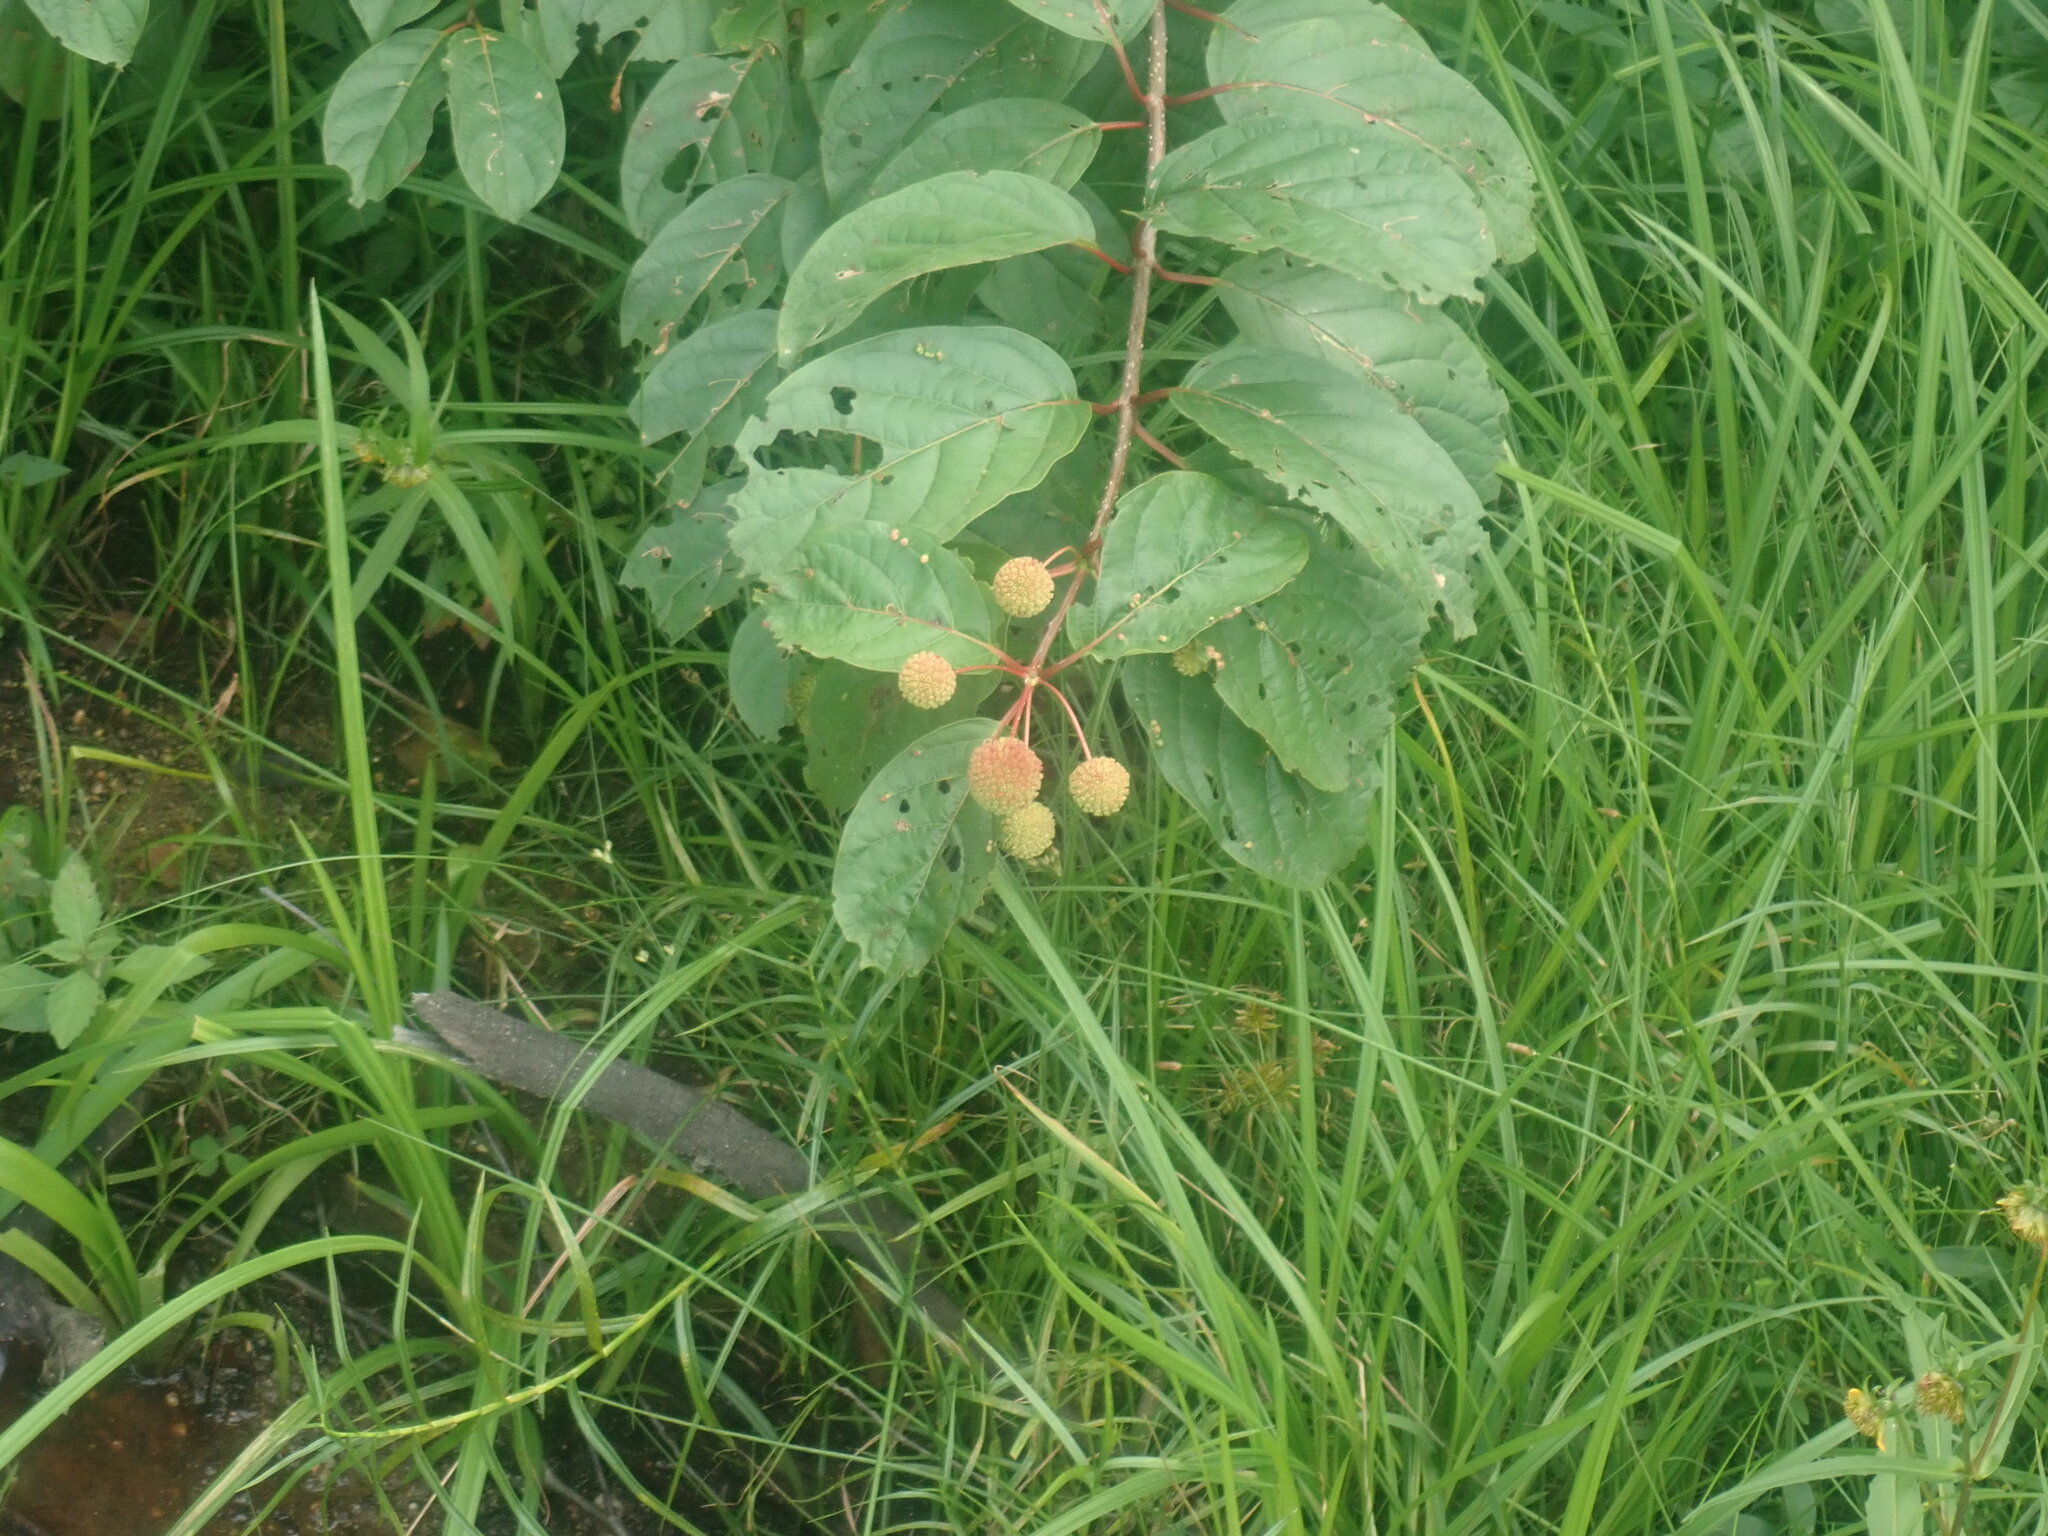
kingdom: Plantae
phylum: Tracheophyta
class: Magnoliopsida
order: Gentianales
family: Rubiaceae
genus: Cephalanthus
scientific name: Cephalanthus occidentalis
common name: Button-willow
